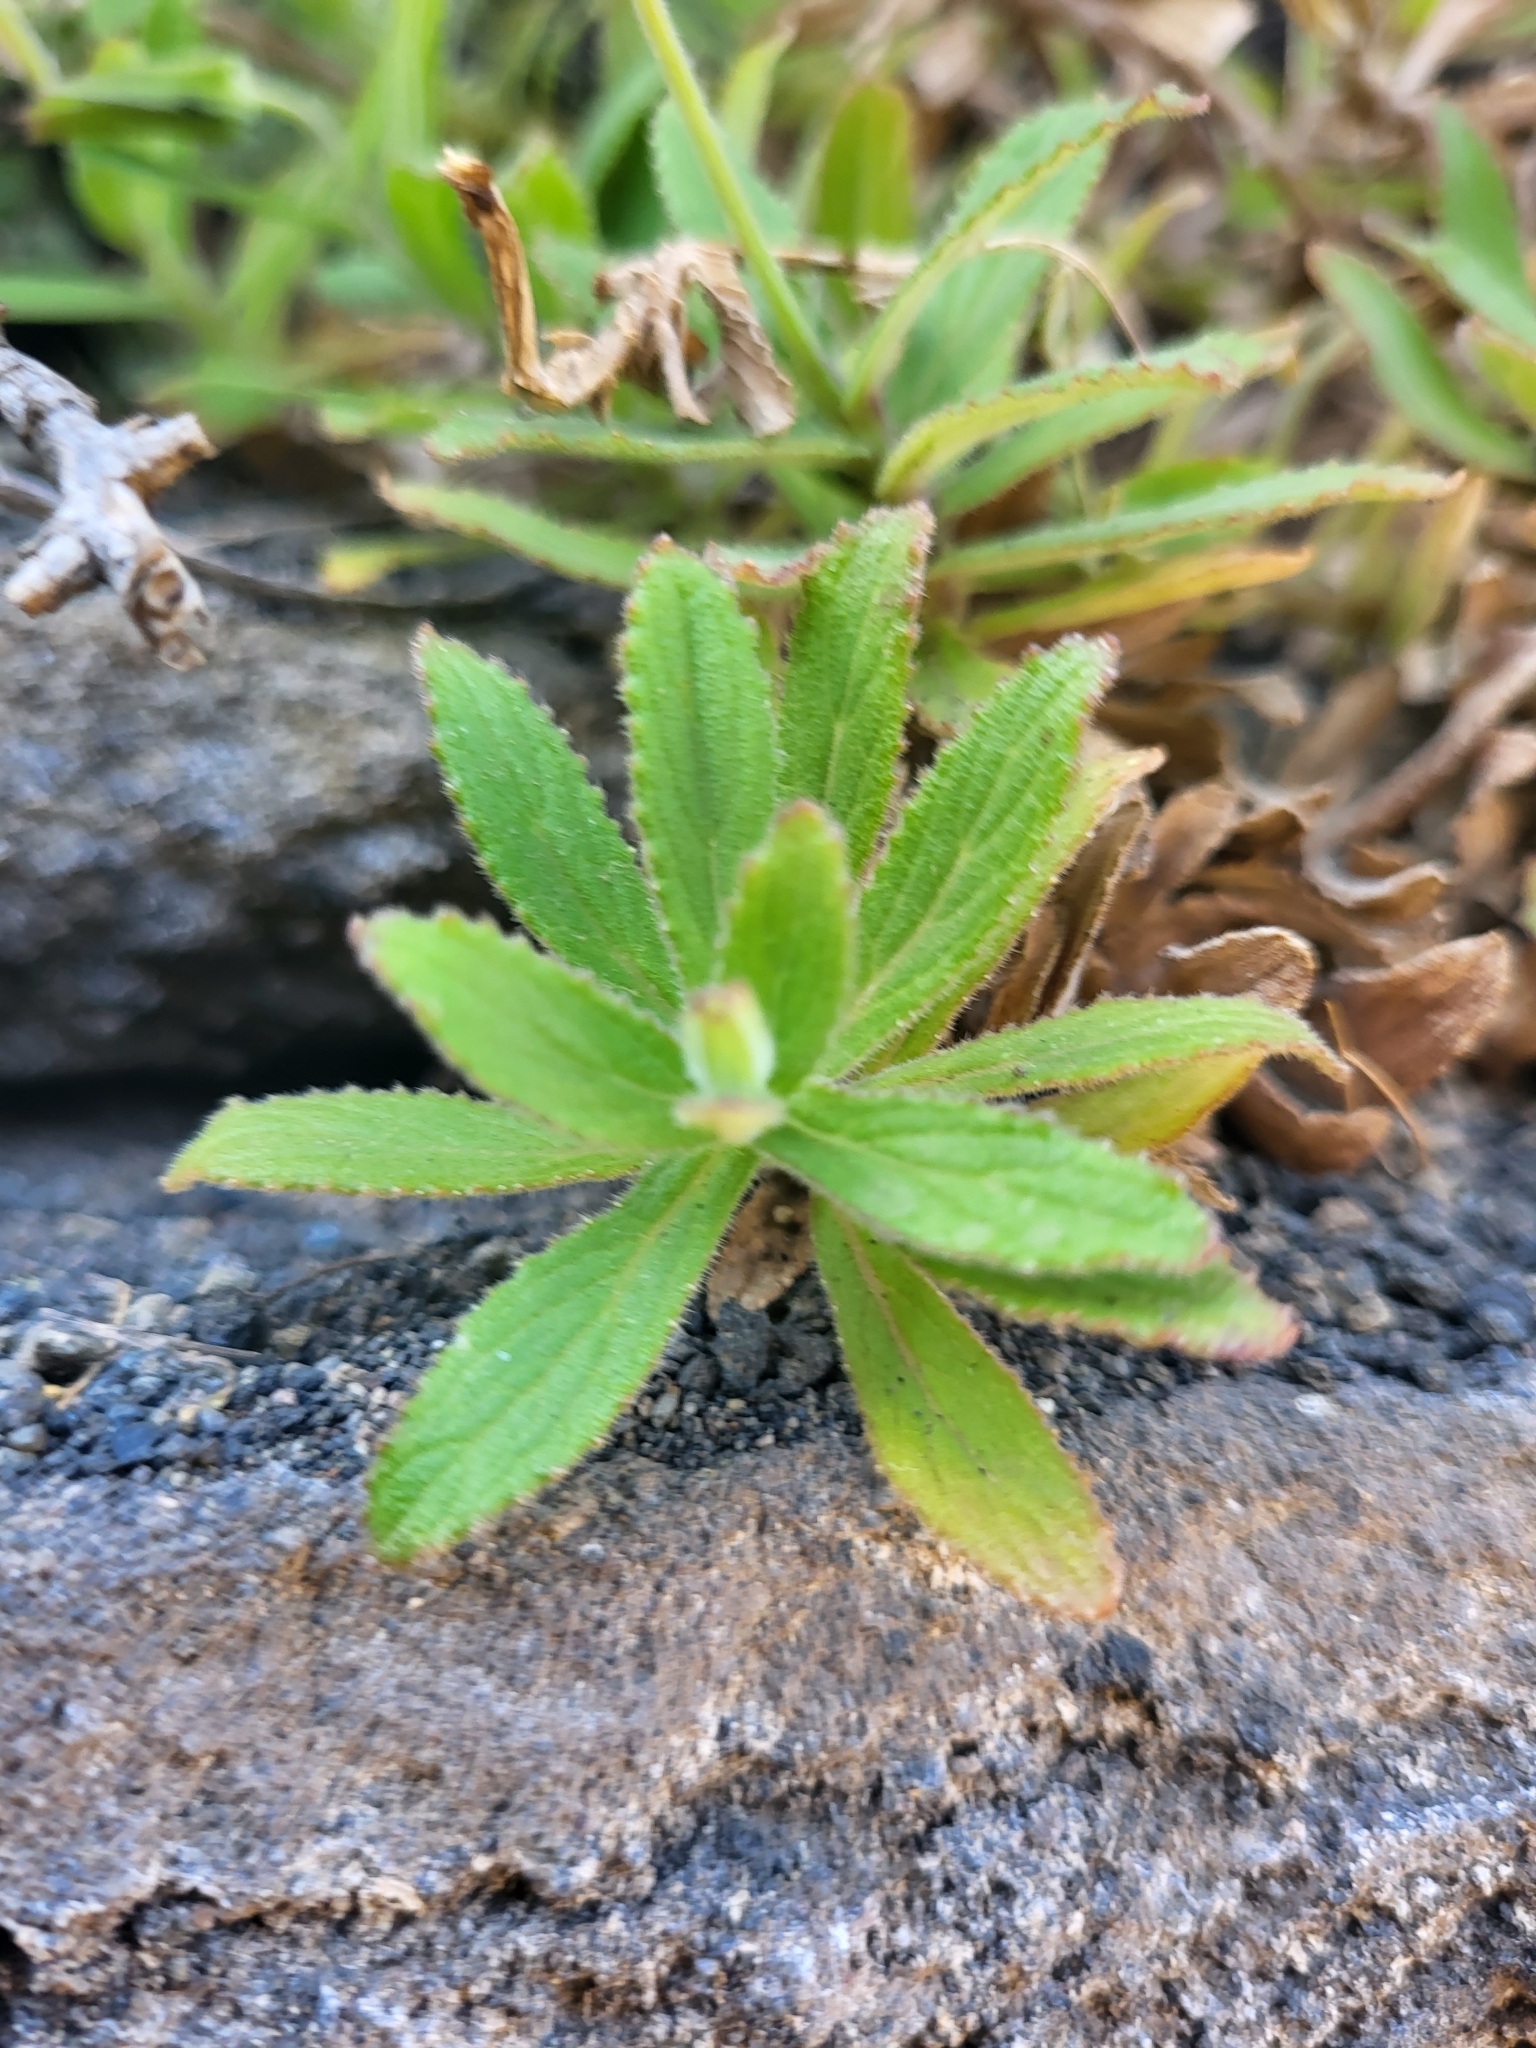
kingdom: Plantae
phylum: Tracheophyta
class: Magnoliopsida
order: Asterales
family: Campanulaceae
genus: Campanula
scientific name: Campanula feijoana
